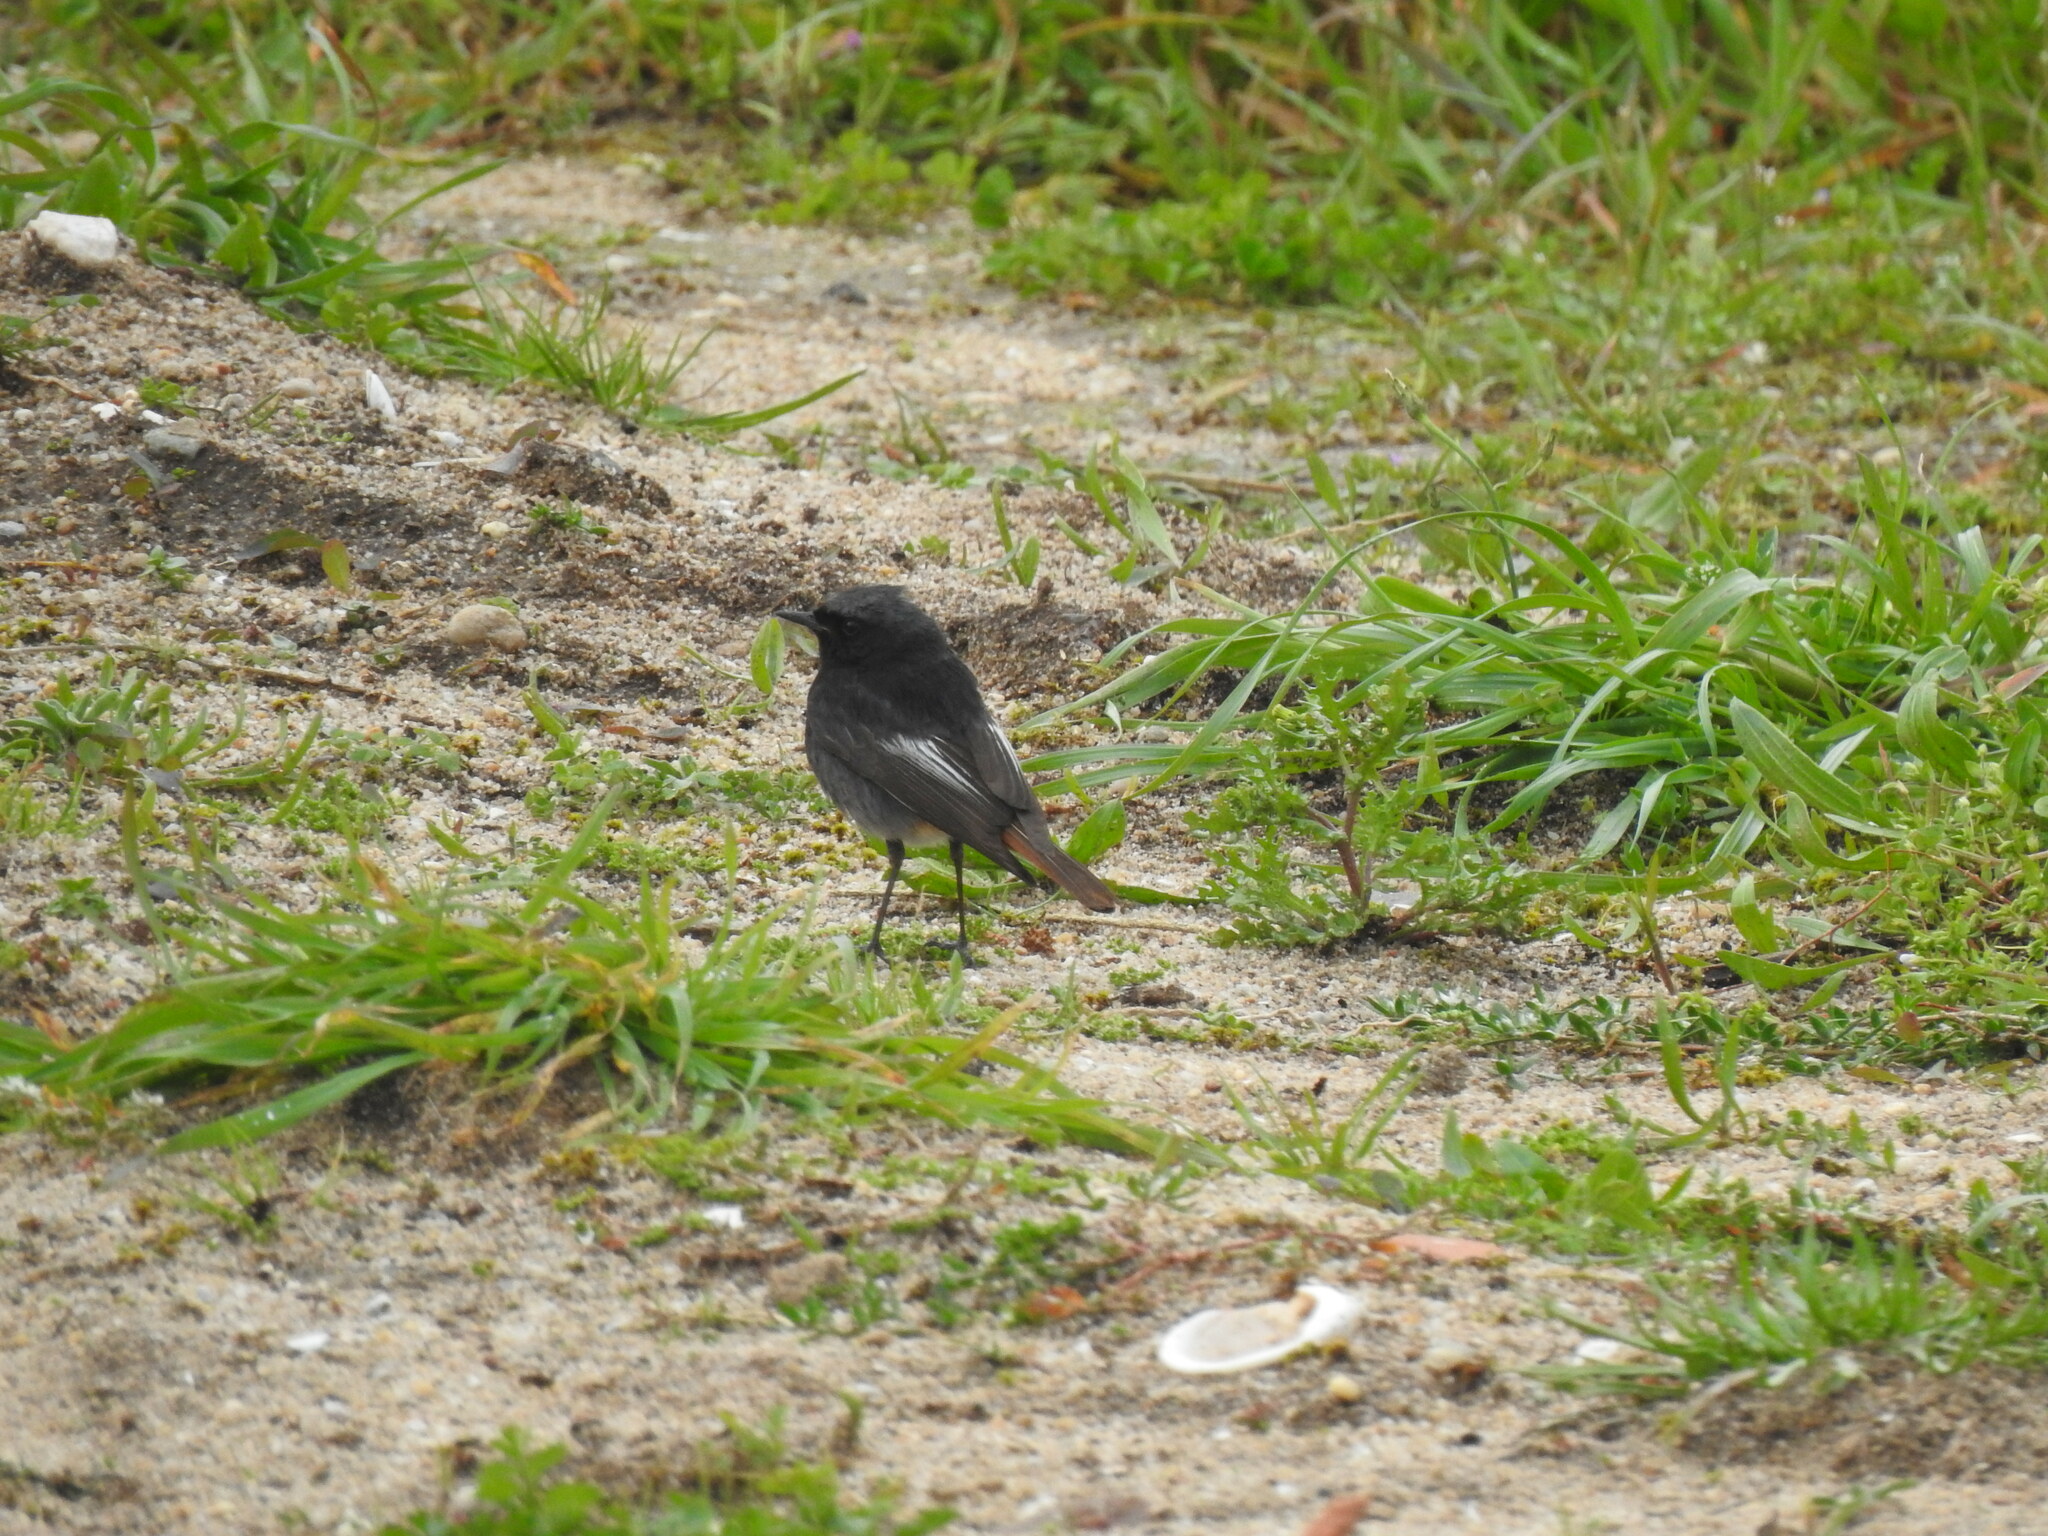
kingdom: Animalia
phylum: Chordata
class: Aves
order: Passeriformes
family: Muscicapidae
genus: Phoenicurus
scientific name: Phoenicurus ochruros
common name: Black redstart
